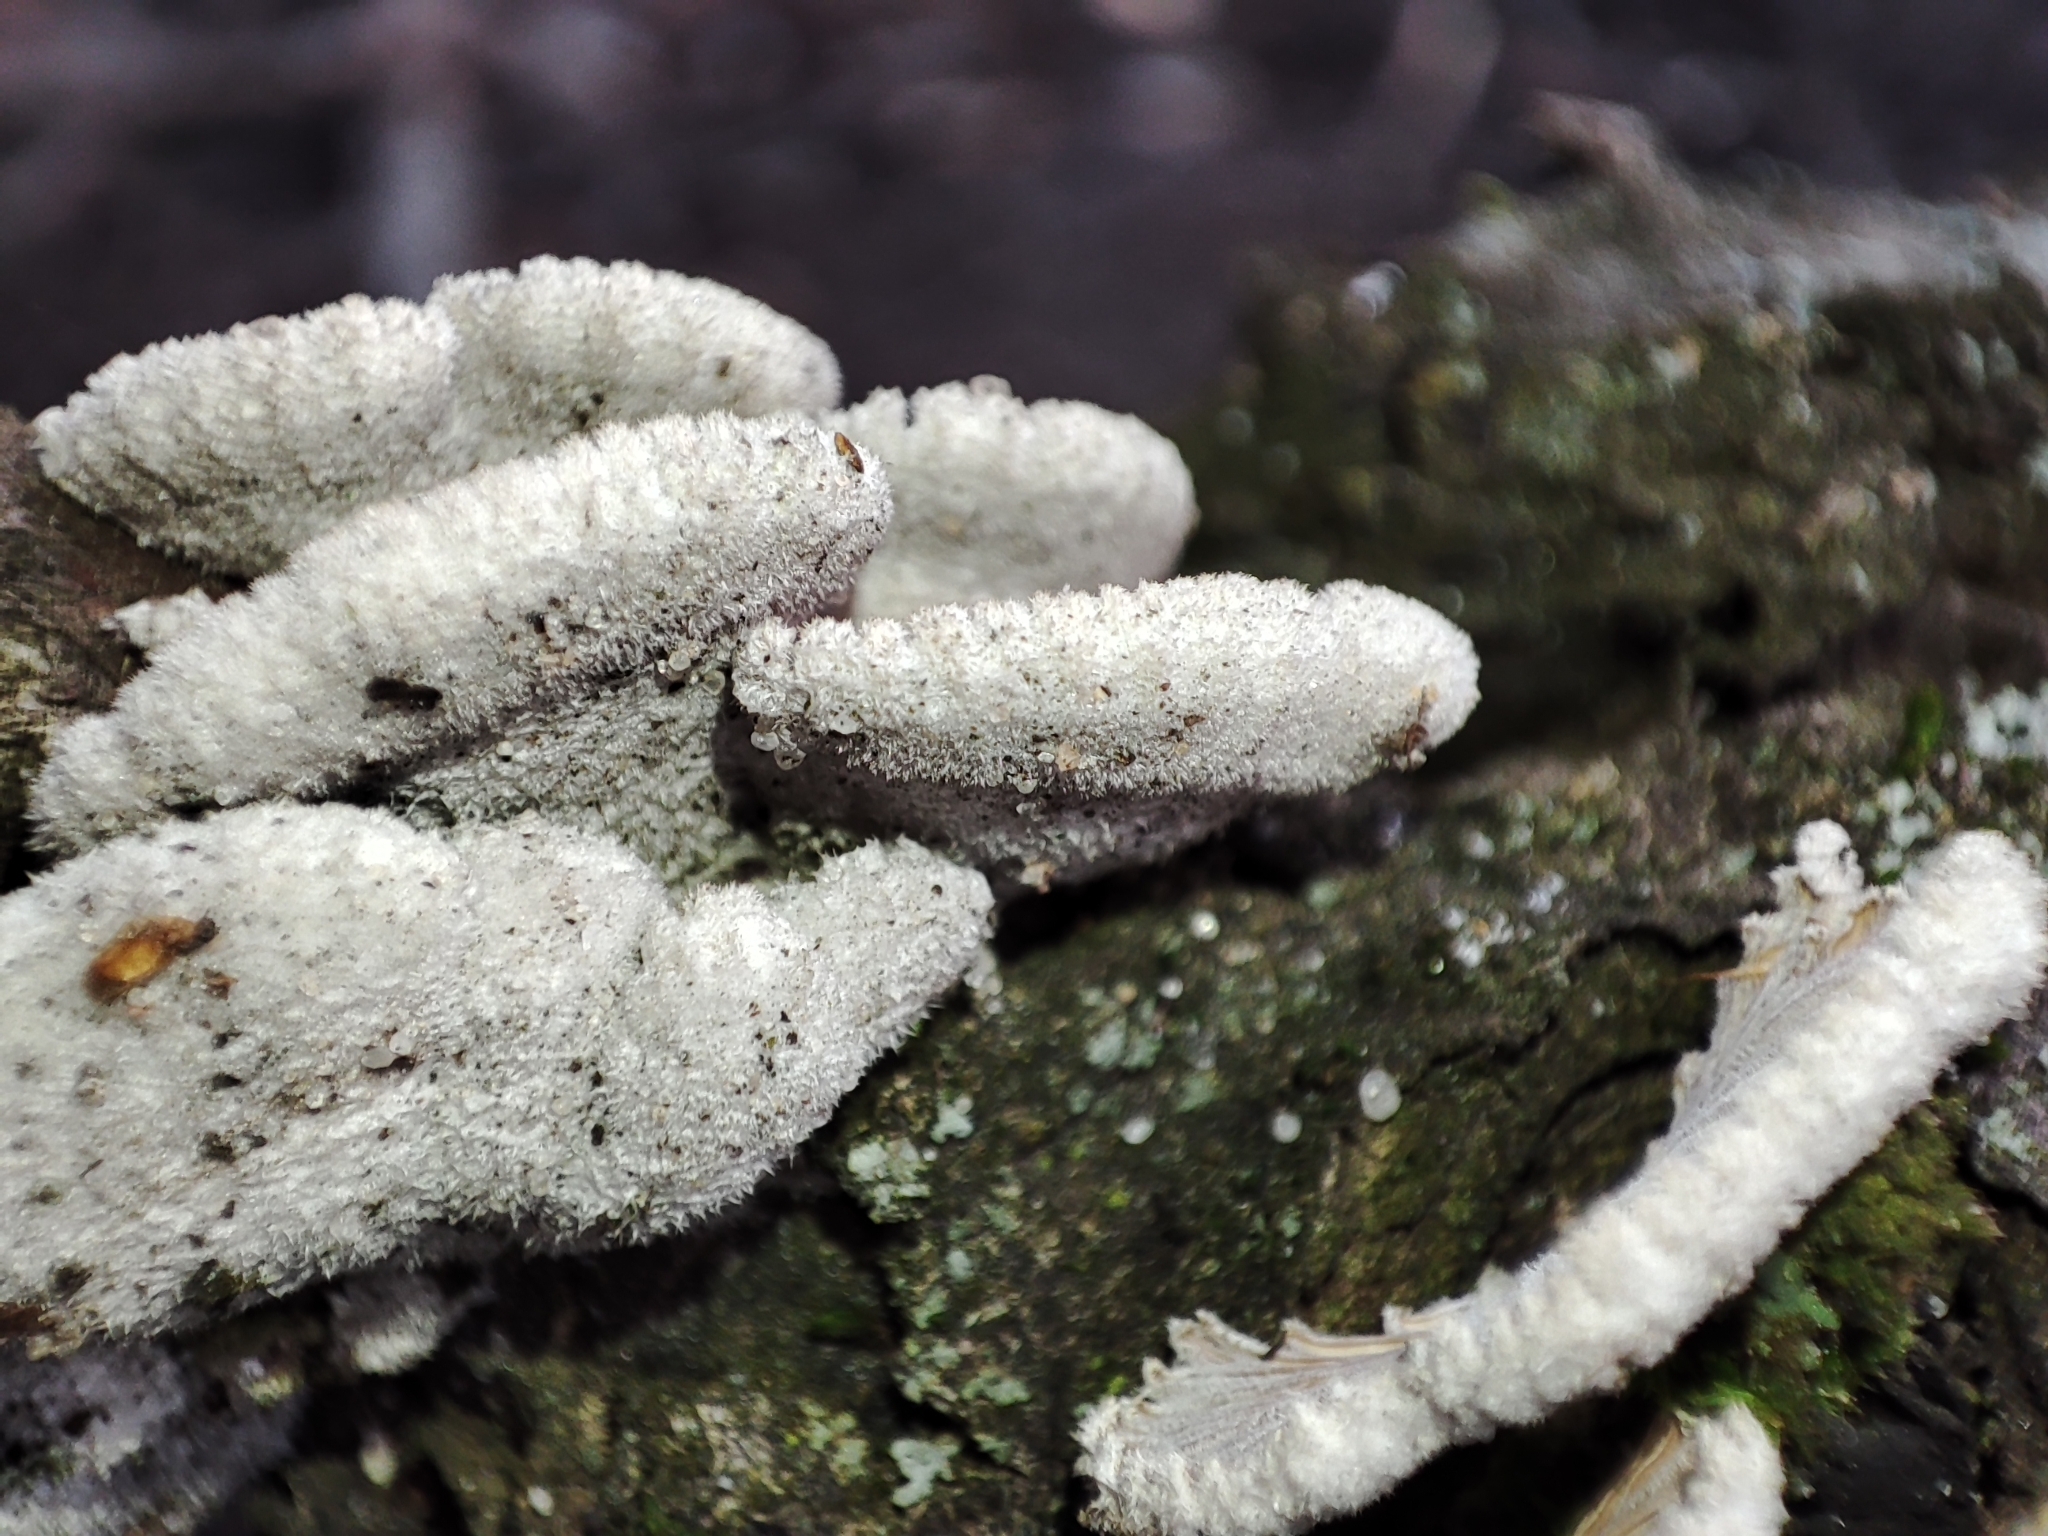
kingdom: Fungi
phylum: Basidiomycota
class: Agaricomycetes
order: Agaricales
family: Schizophyllaceae
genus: Schizophyllum
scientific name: Schizophyllum commune
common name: Common porecrust
